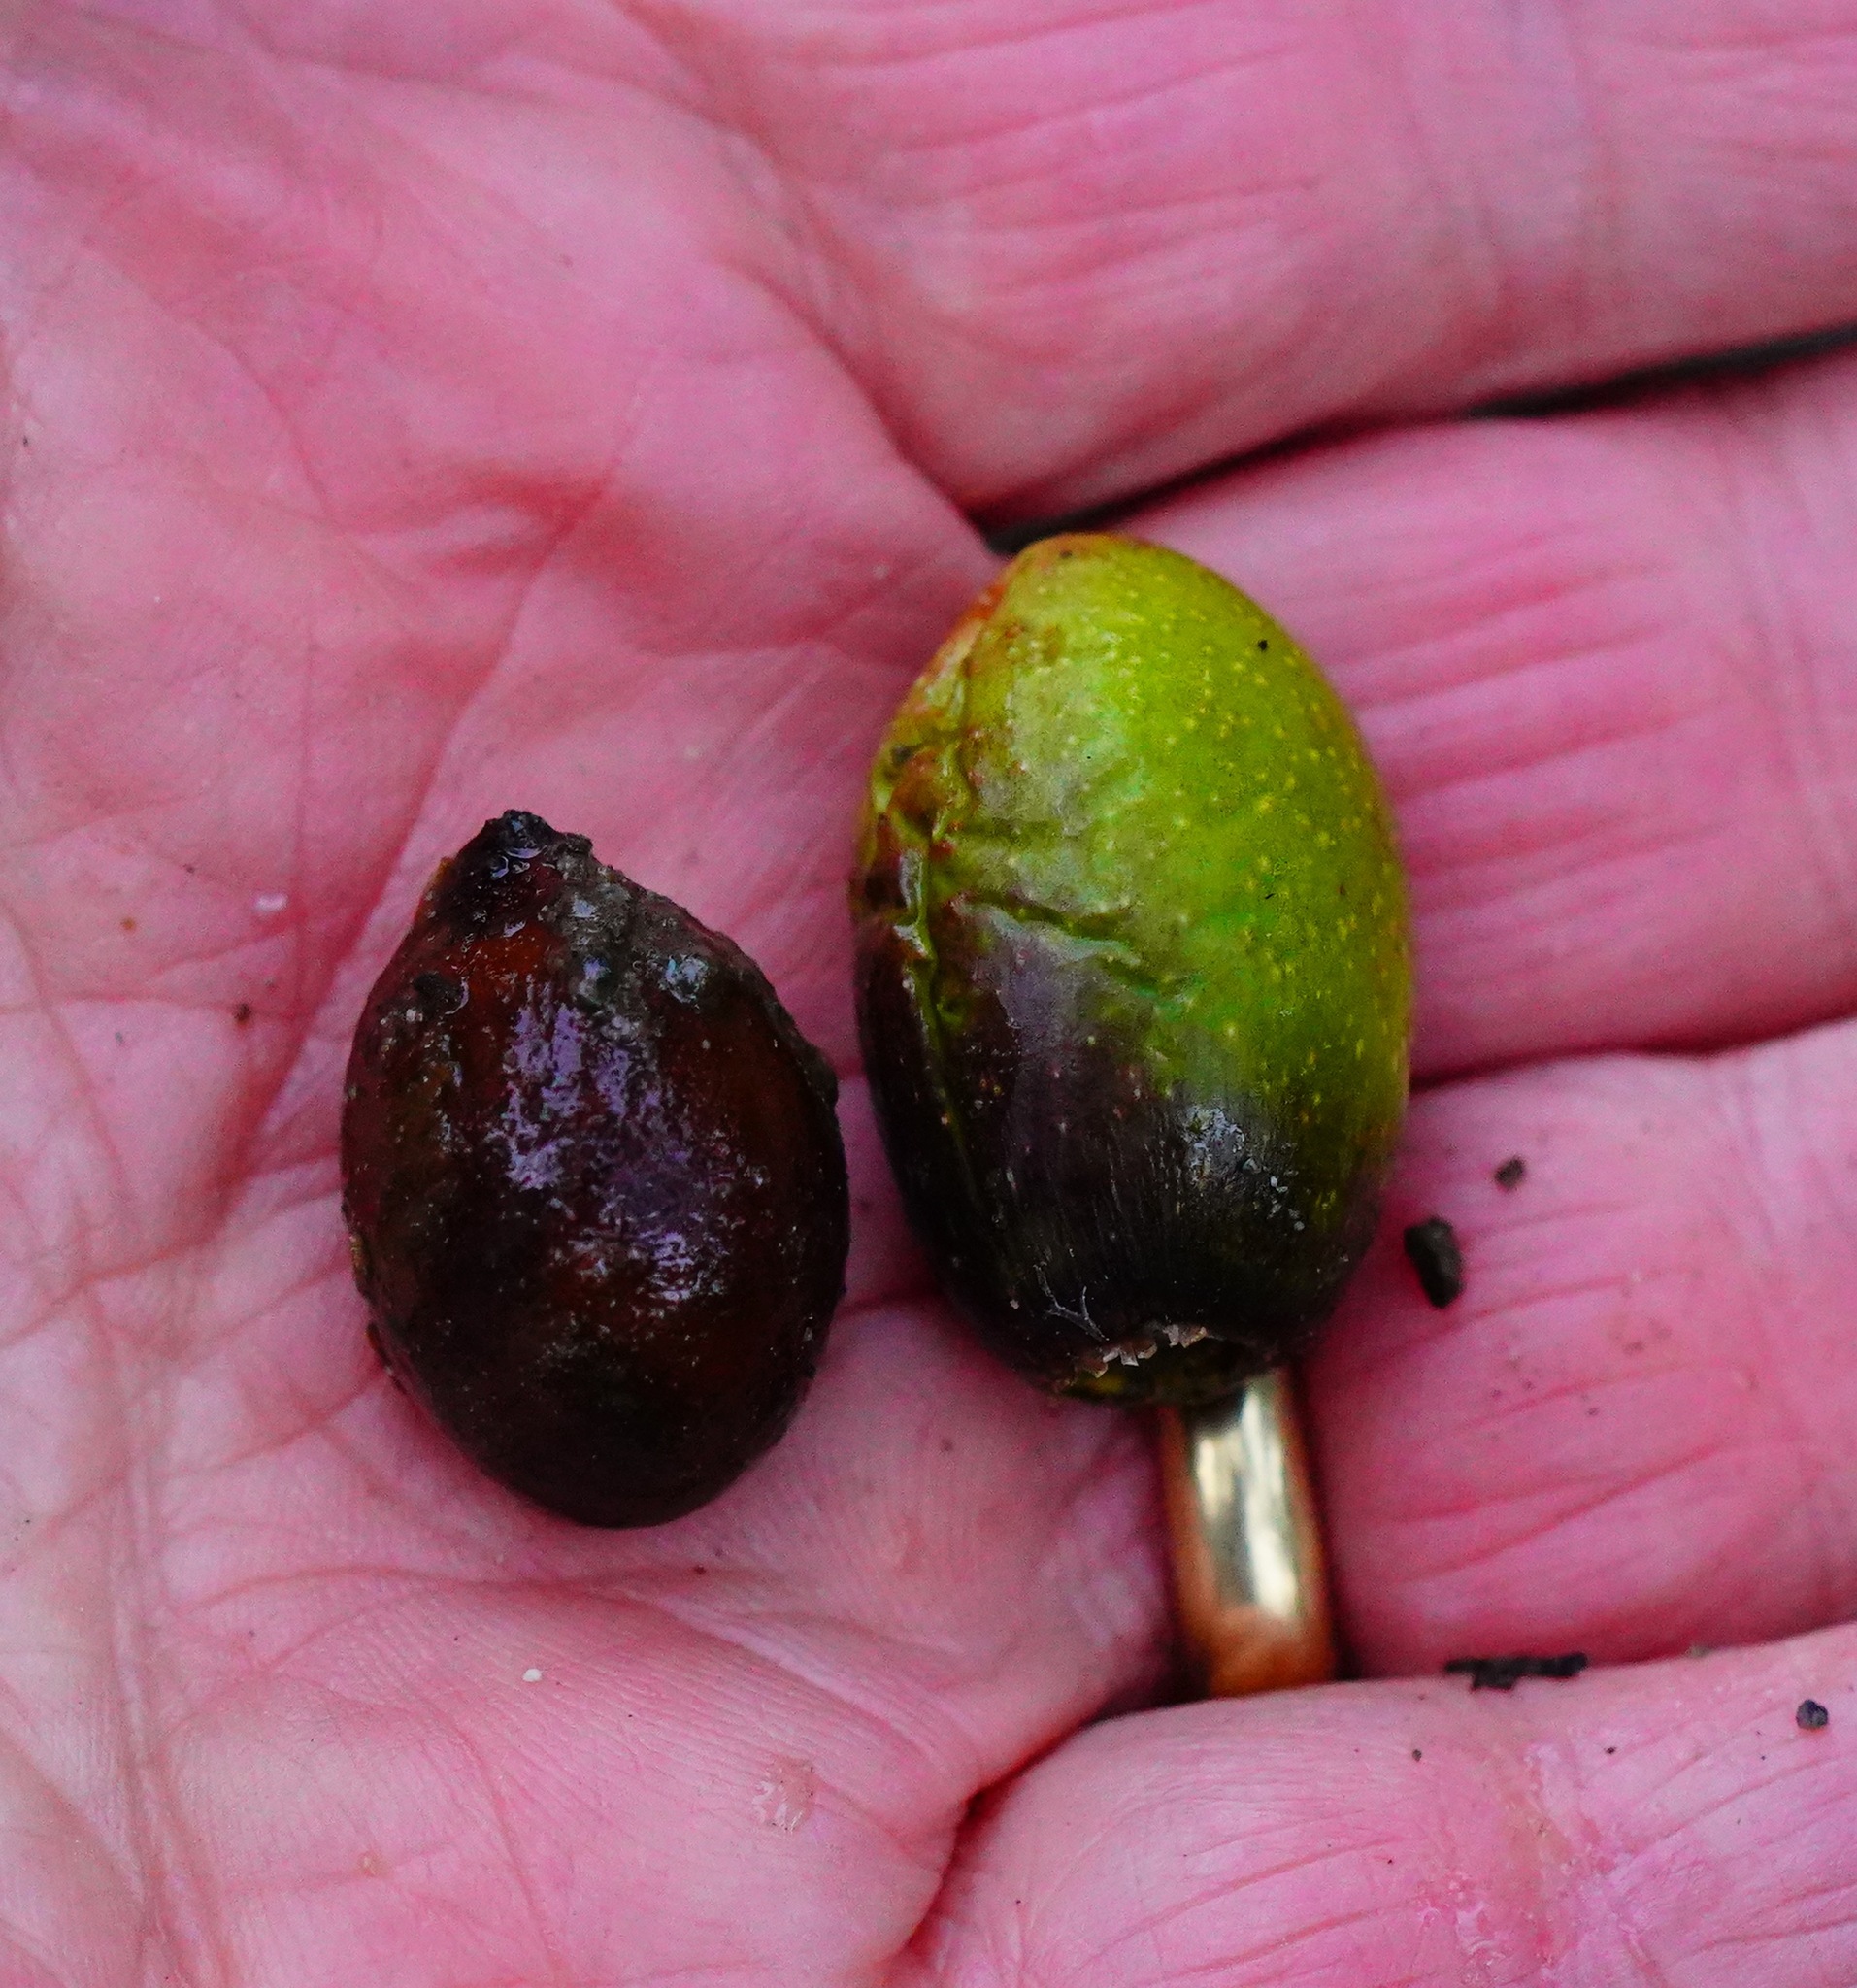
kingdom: Plantae
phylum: Tracheophyta
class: Magnoliopsida
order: Laurales
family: Lauraceae
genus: Umbellularia
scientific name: Umbellularia californica
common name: California bay
